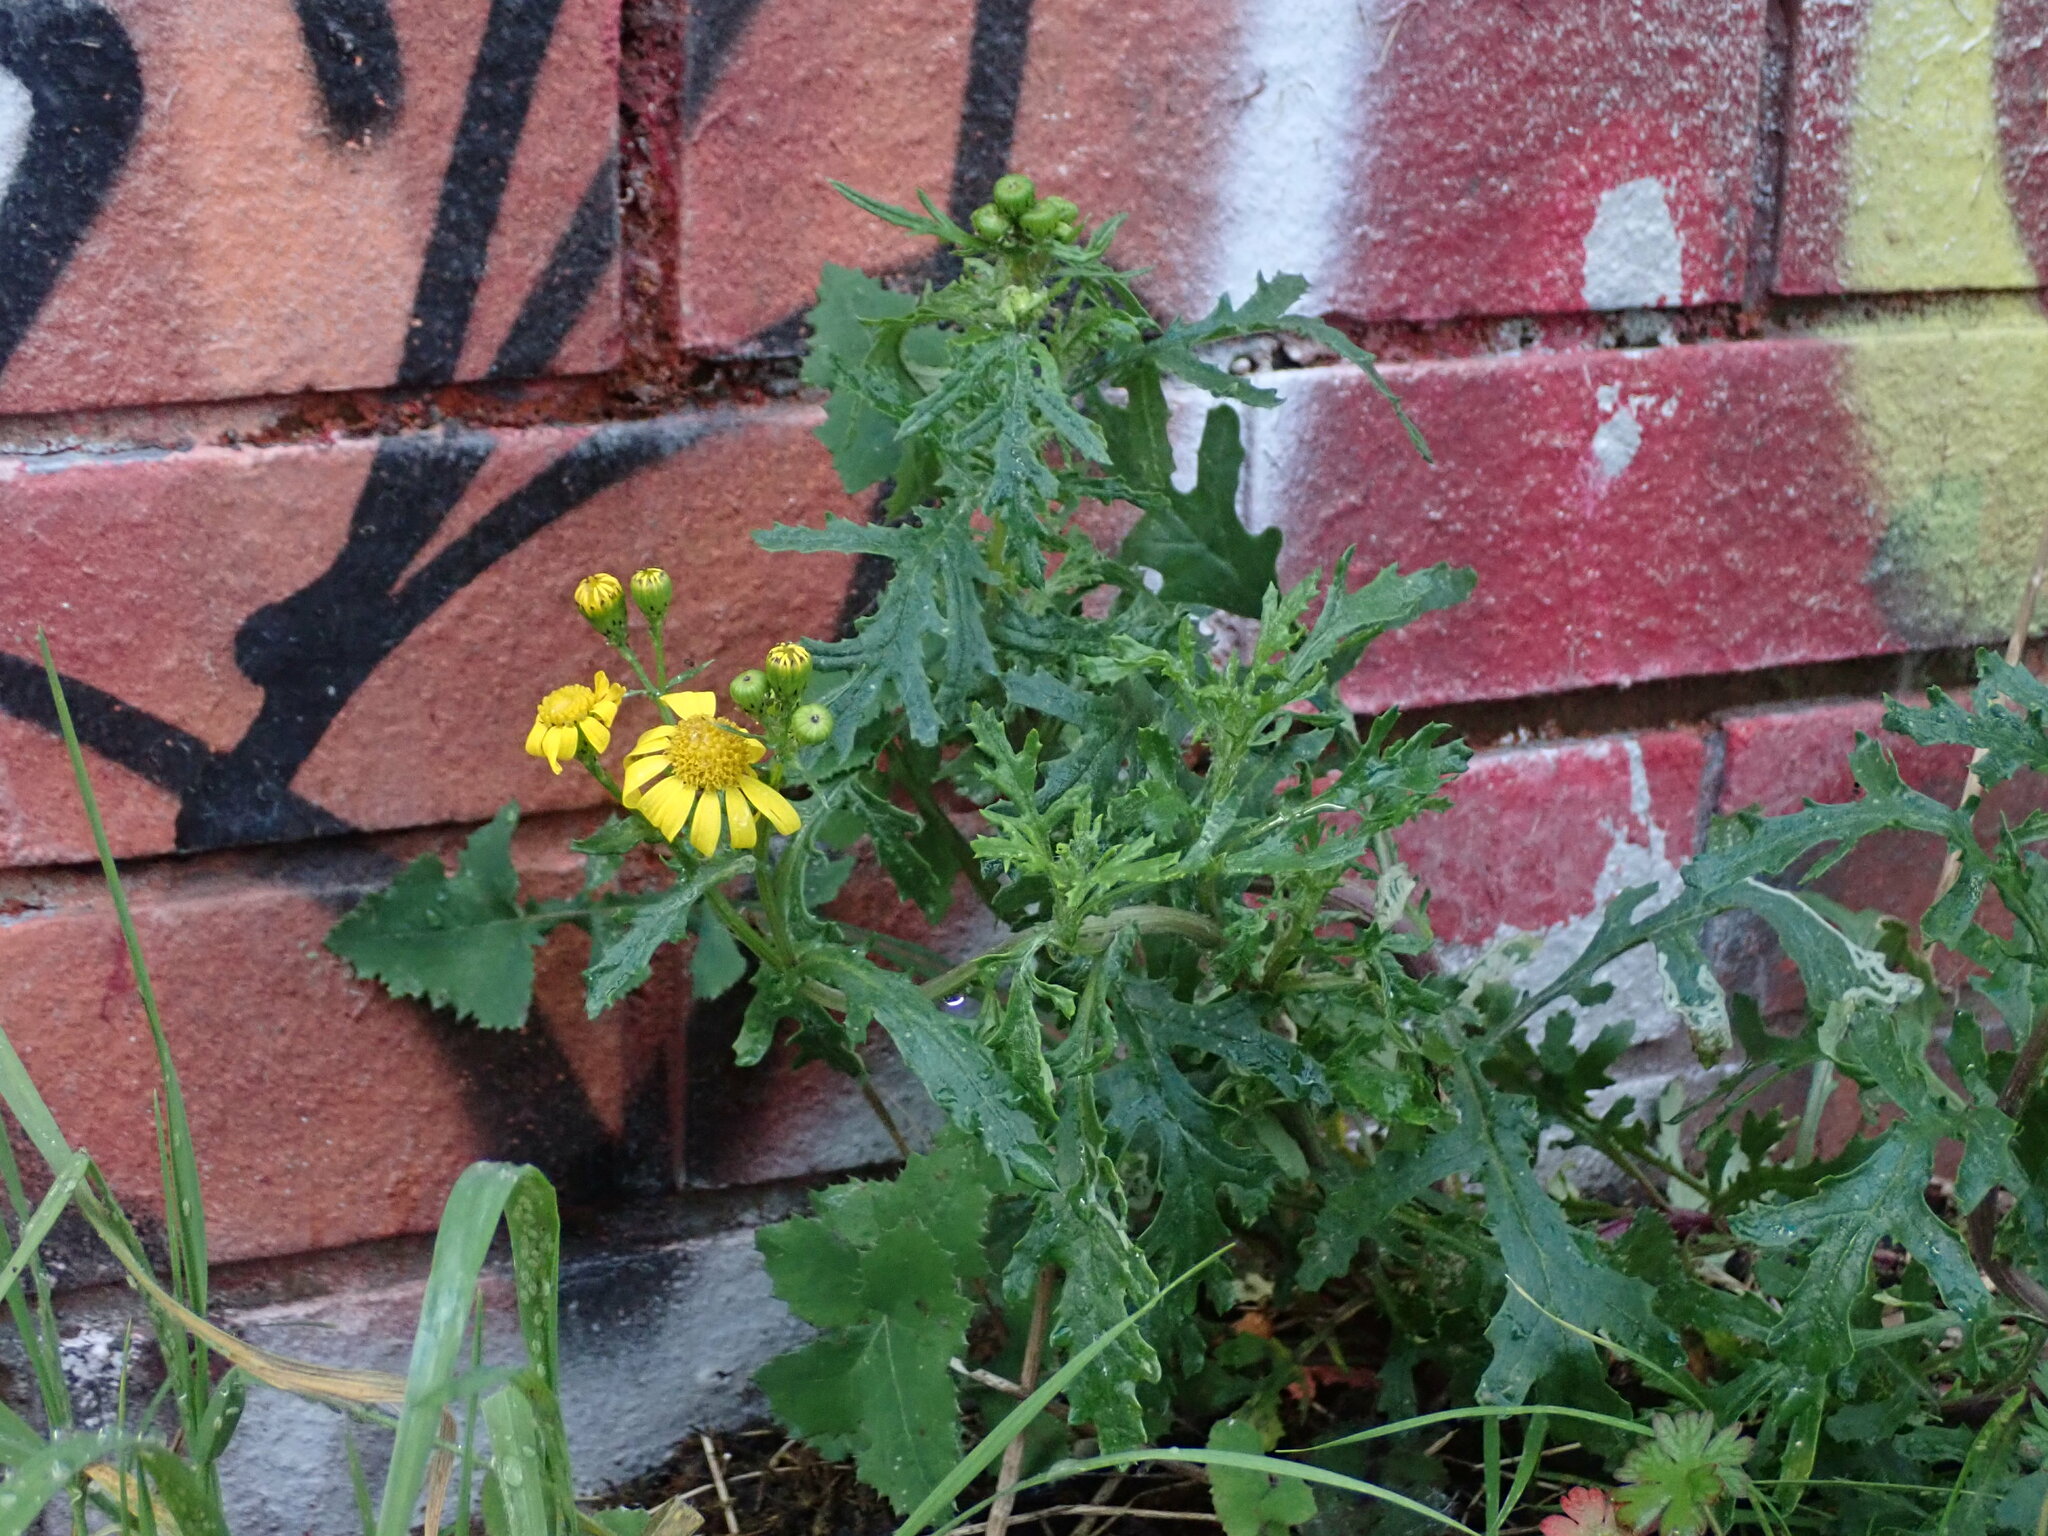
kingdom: Plantae
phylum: Tracheophyta
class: Magnoliopsida
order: Asterales
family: Asteraceae
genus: Senecio
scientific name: Senecio squalidus
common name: Oxford ragwort
